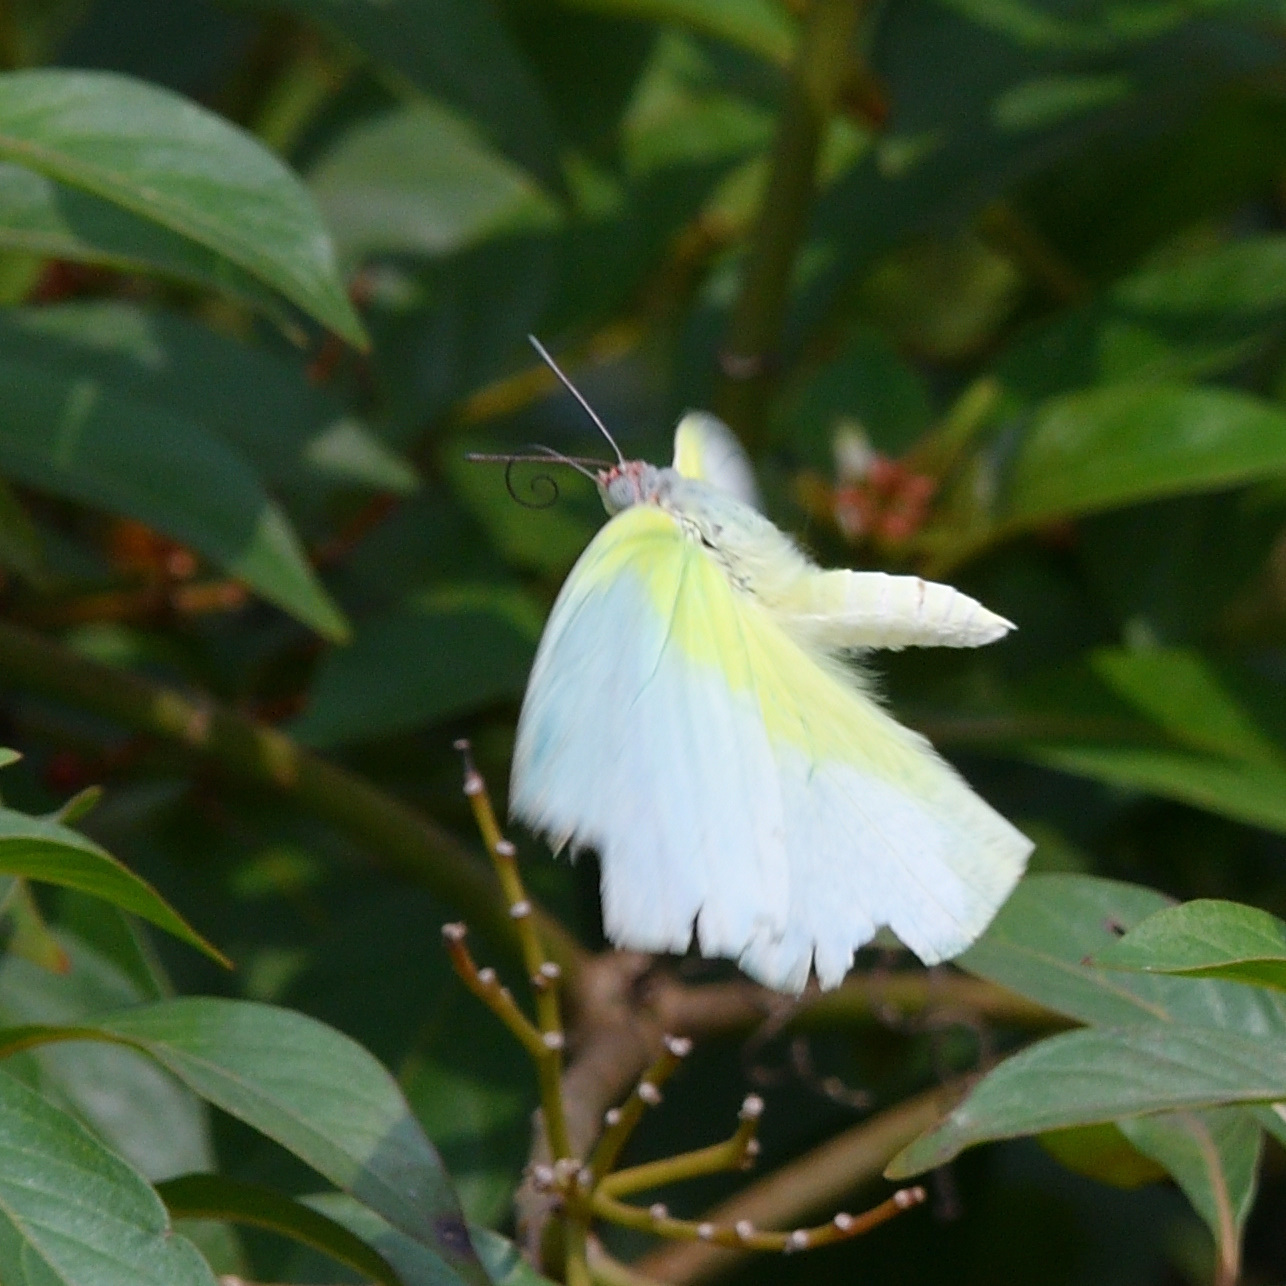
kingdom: Animalia
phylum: Arthropoda
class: Insecta
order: Lepidoptera
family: Pieridae
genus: Catopsilia
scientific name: Catopsilia pomona
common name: Common emigrant
